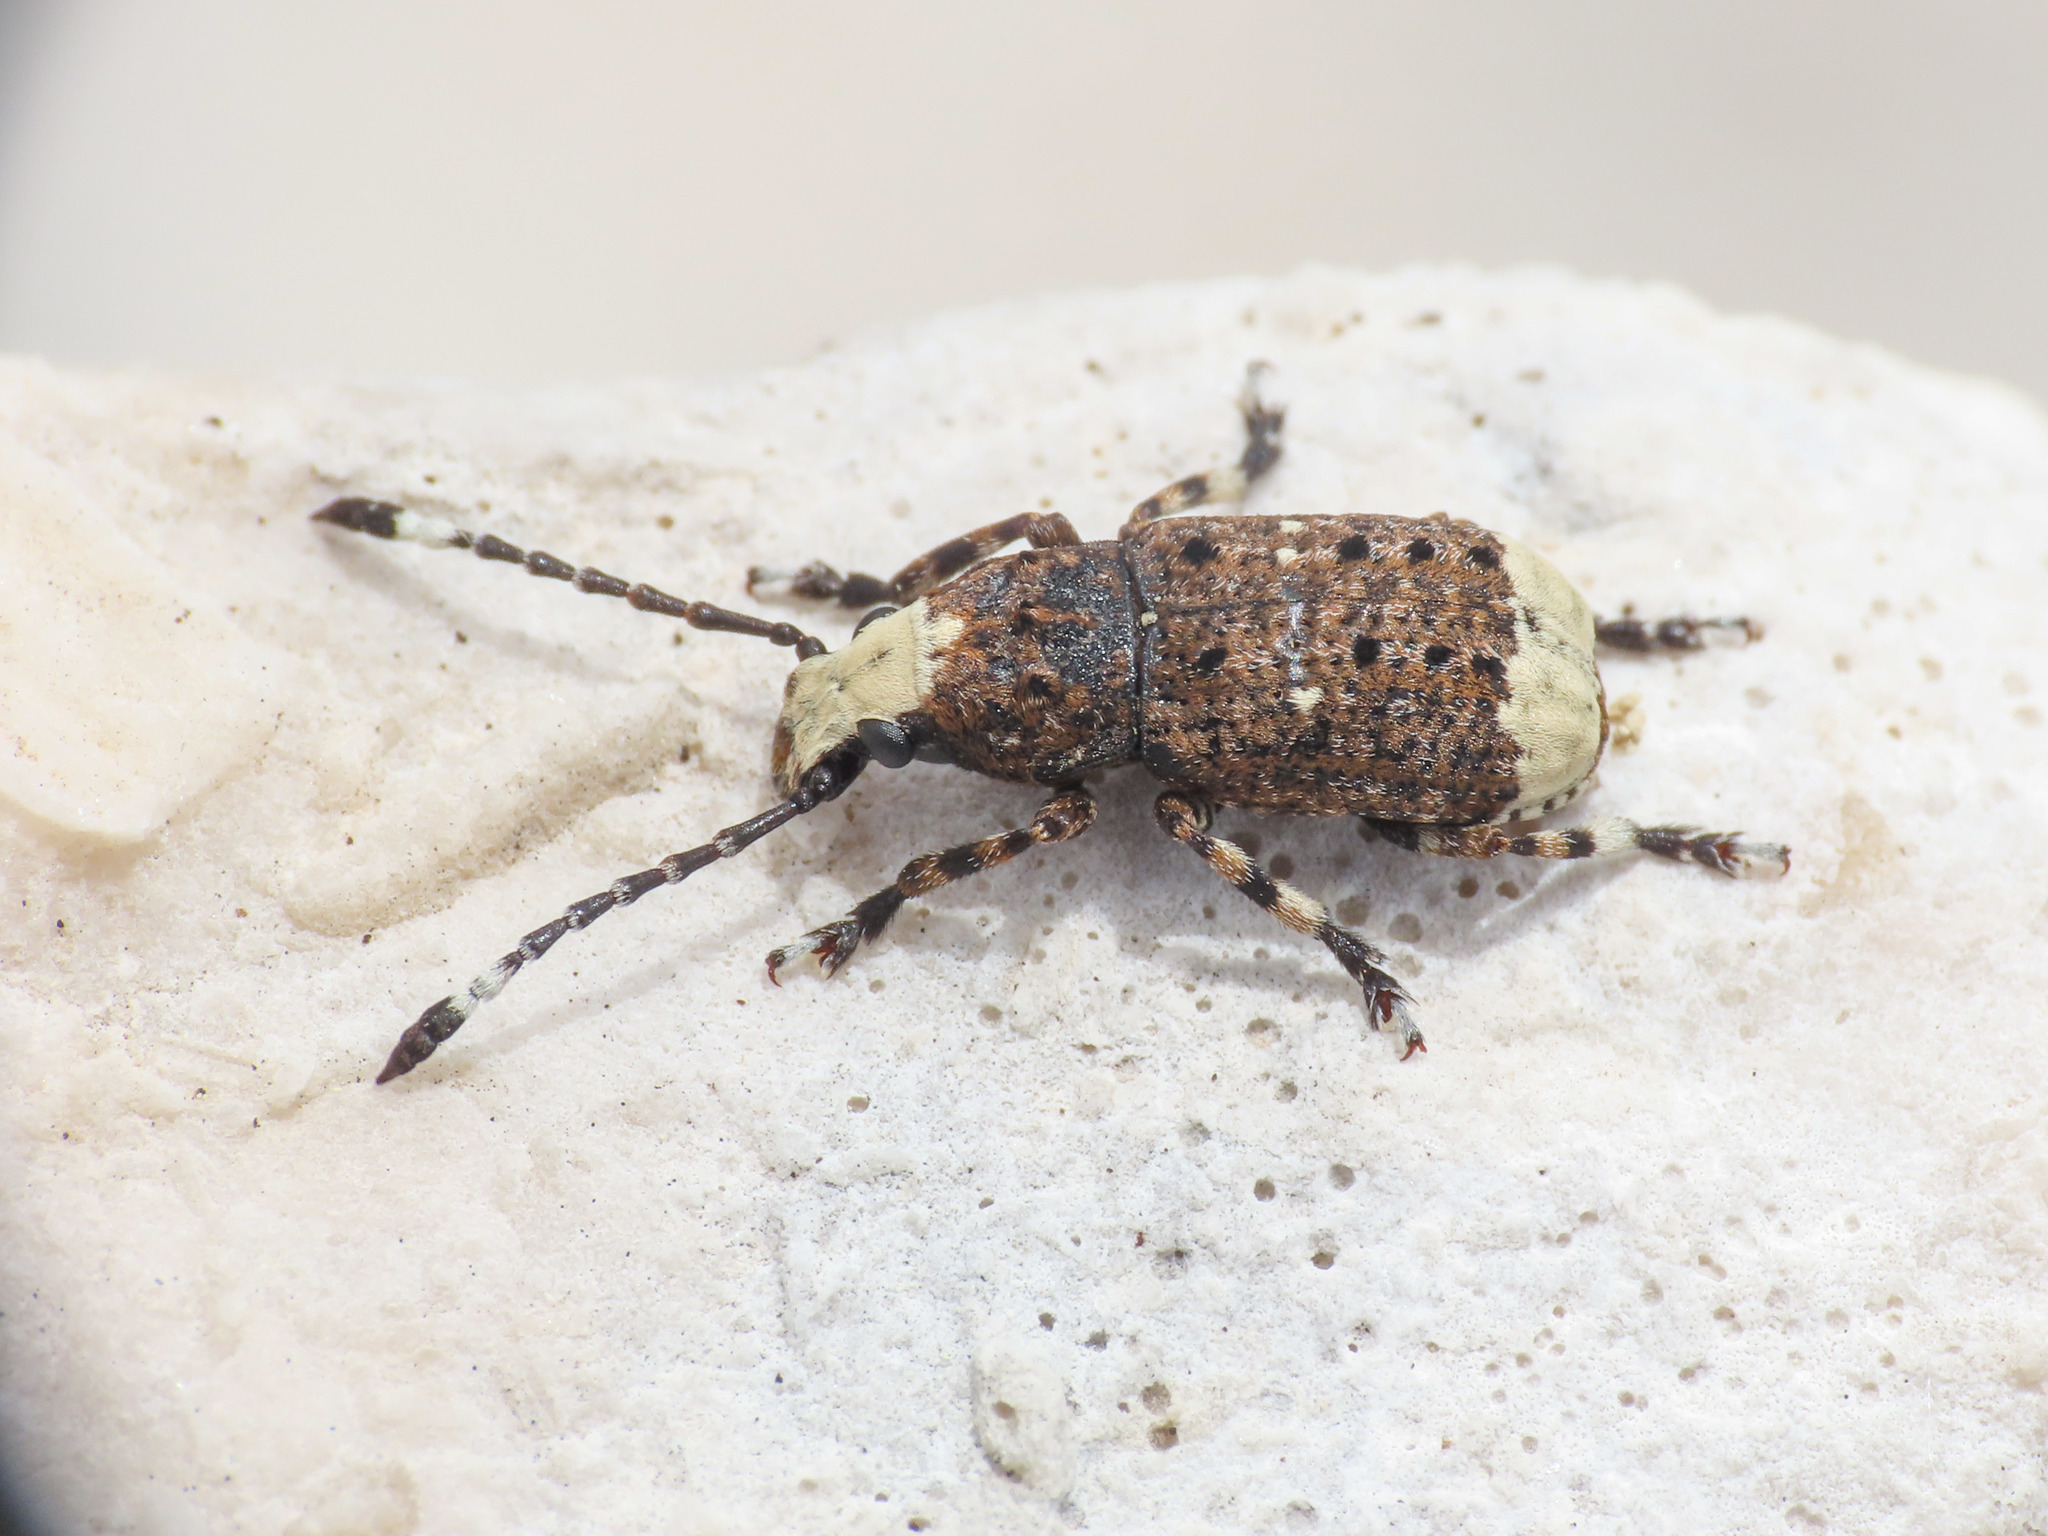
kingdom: Animalia
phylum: Arthropoda
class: Insecta
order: Coleoptera
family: Anthribidae
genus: Platystomos
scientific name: Platystomos albinus
